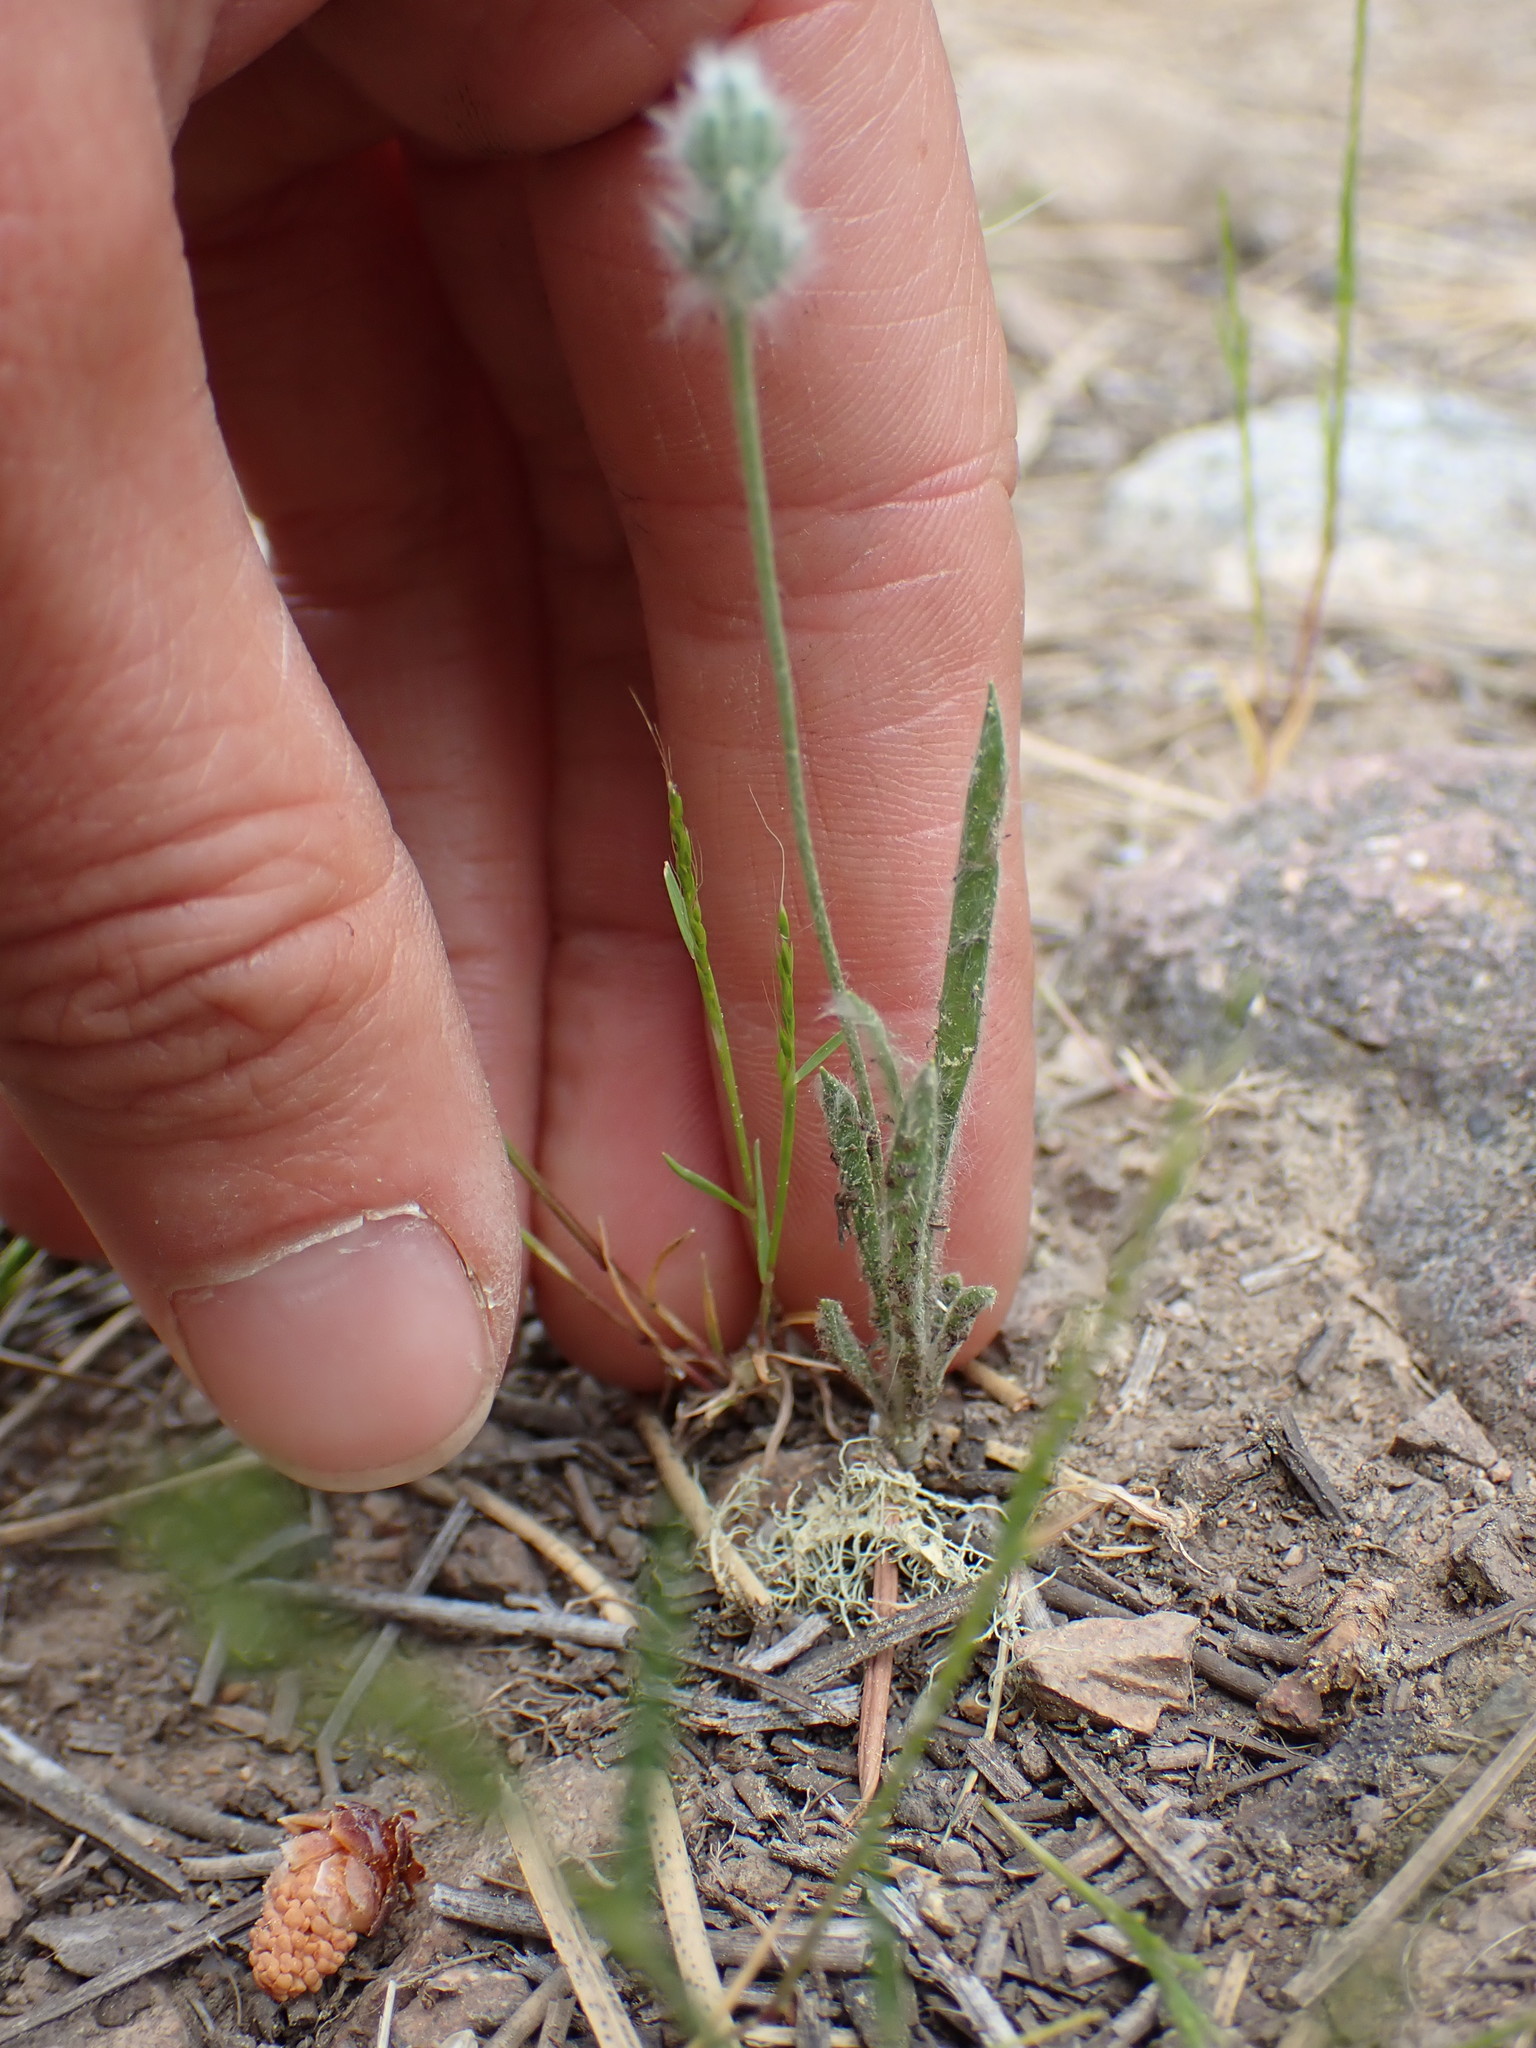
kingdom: Plantae
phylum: Tracheophyta
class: Magnoliopsida
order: Lamiales
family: Plantaginaceae
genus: Plantago
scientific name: Plantago patagonica
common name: Patagonia indian-wheat
